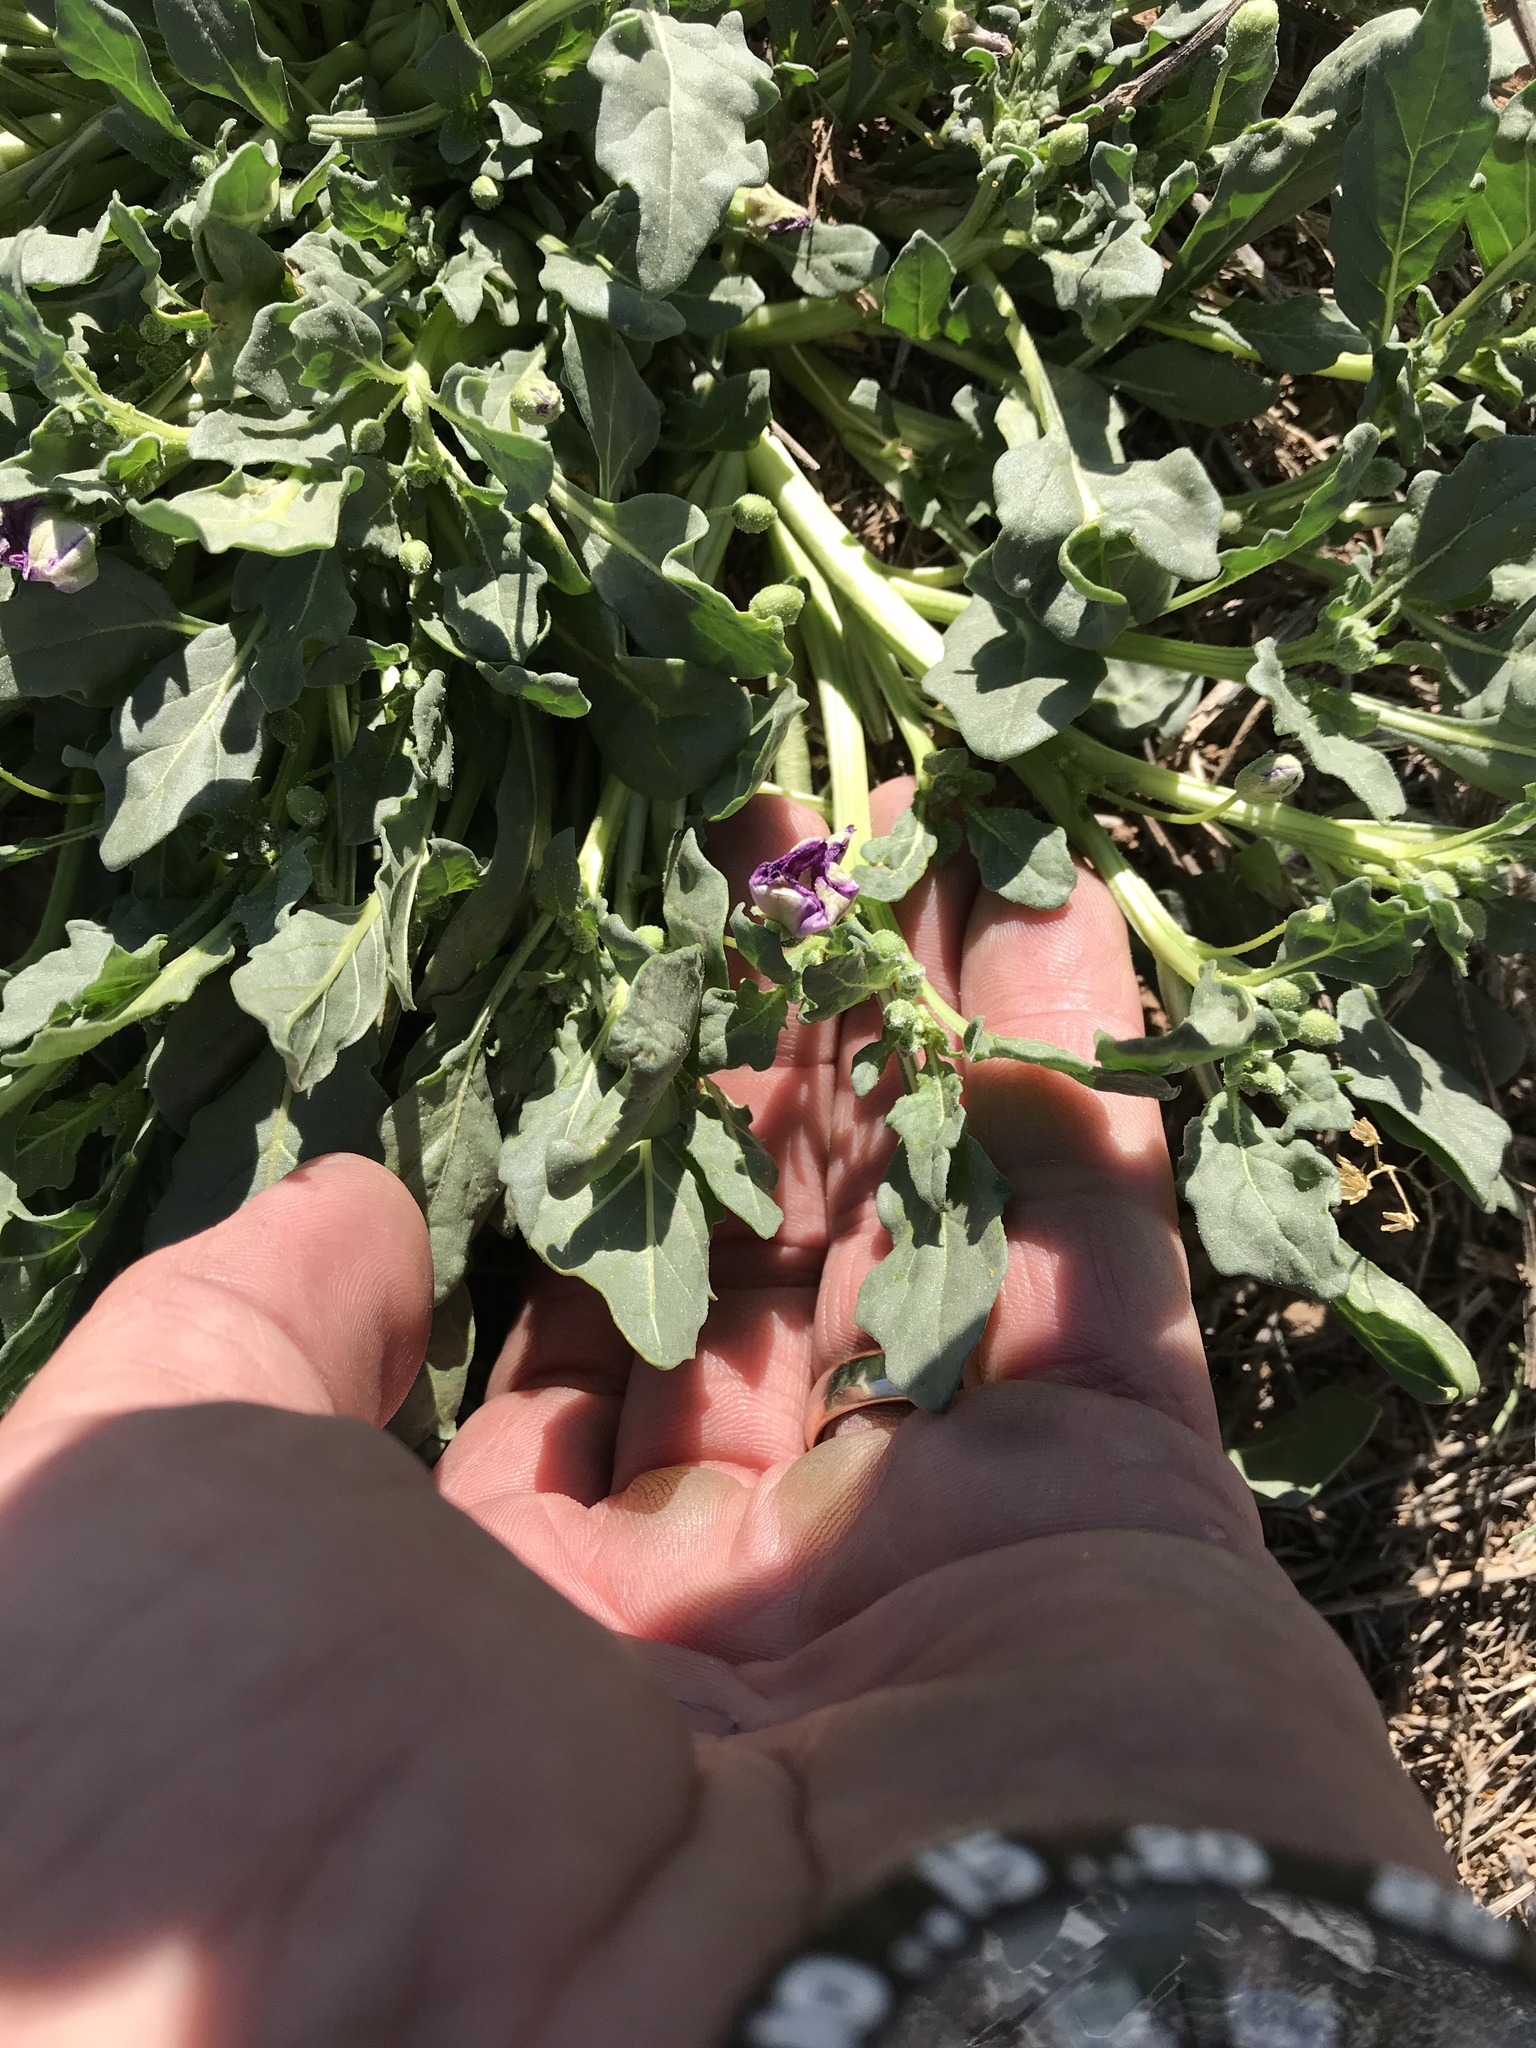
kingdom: Plantae
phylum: Tracheophyta
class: Magnoliopsida
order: Solanales
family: Solanaceae
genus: Quincula
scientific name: Quincula lobata
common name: Purple-ground-cherry
